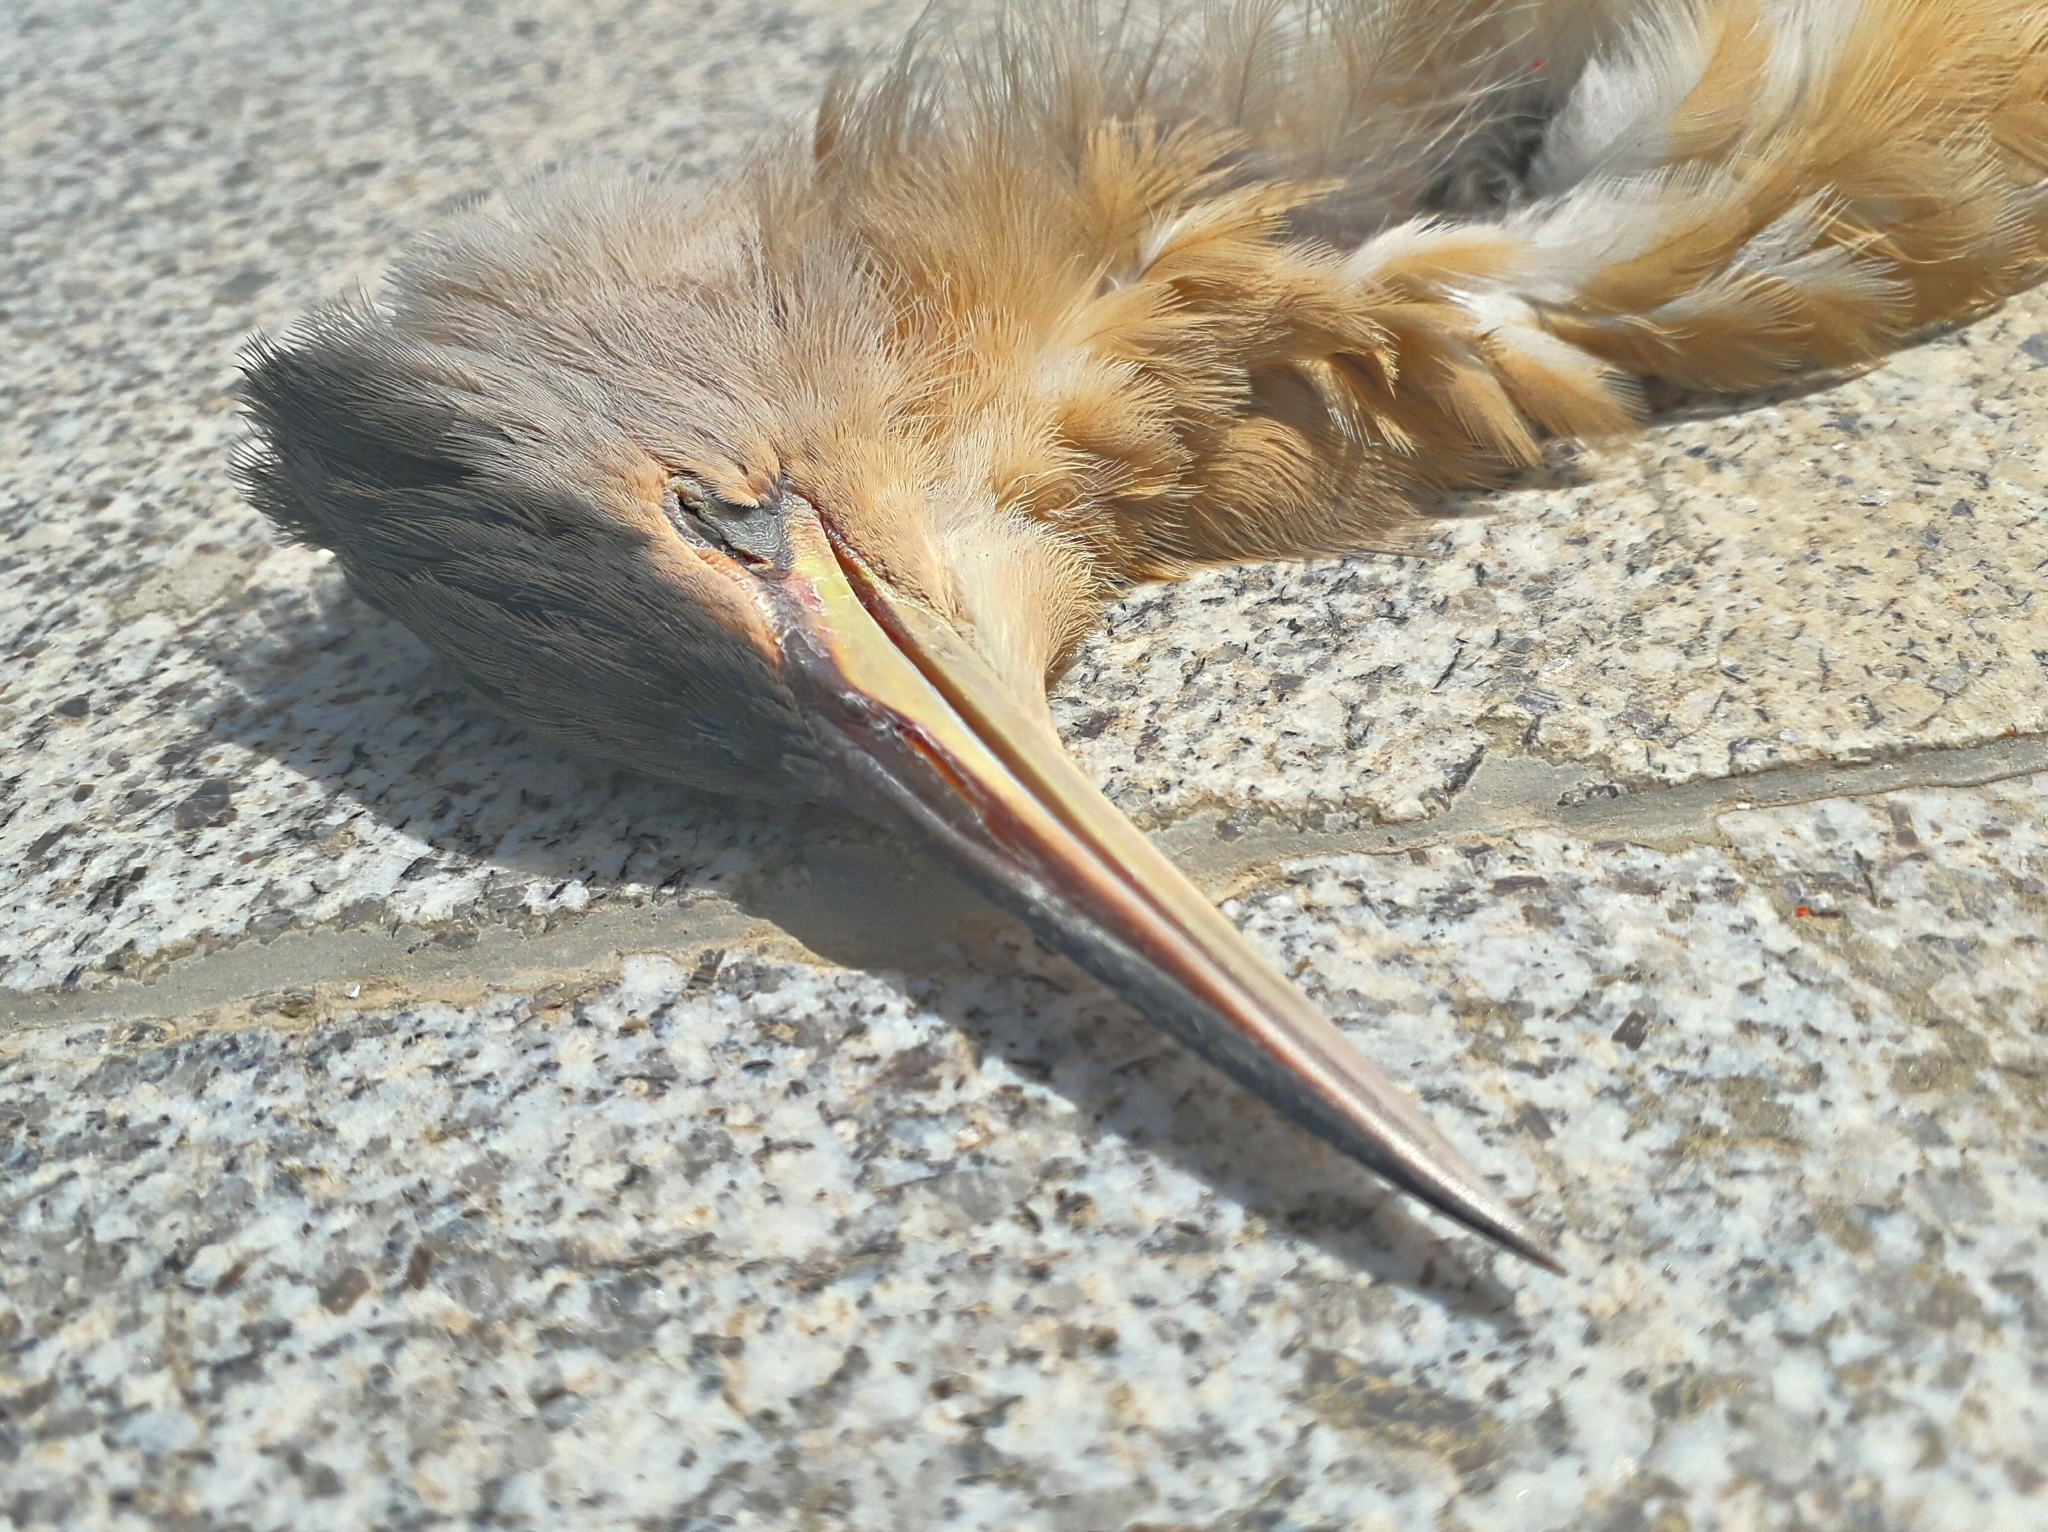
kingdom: Animalia
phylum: Chordata
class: Aves
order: Pelecaniformes
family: Ardeidae
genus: Ixobrychus
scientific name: Ixobrychus minutus
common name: Little bittern
